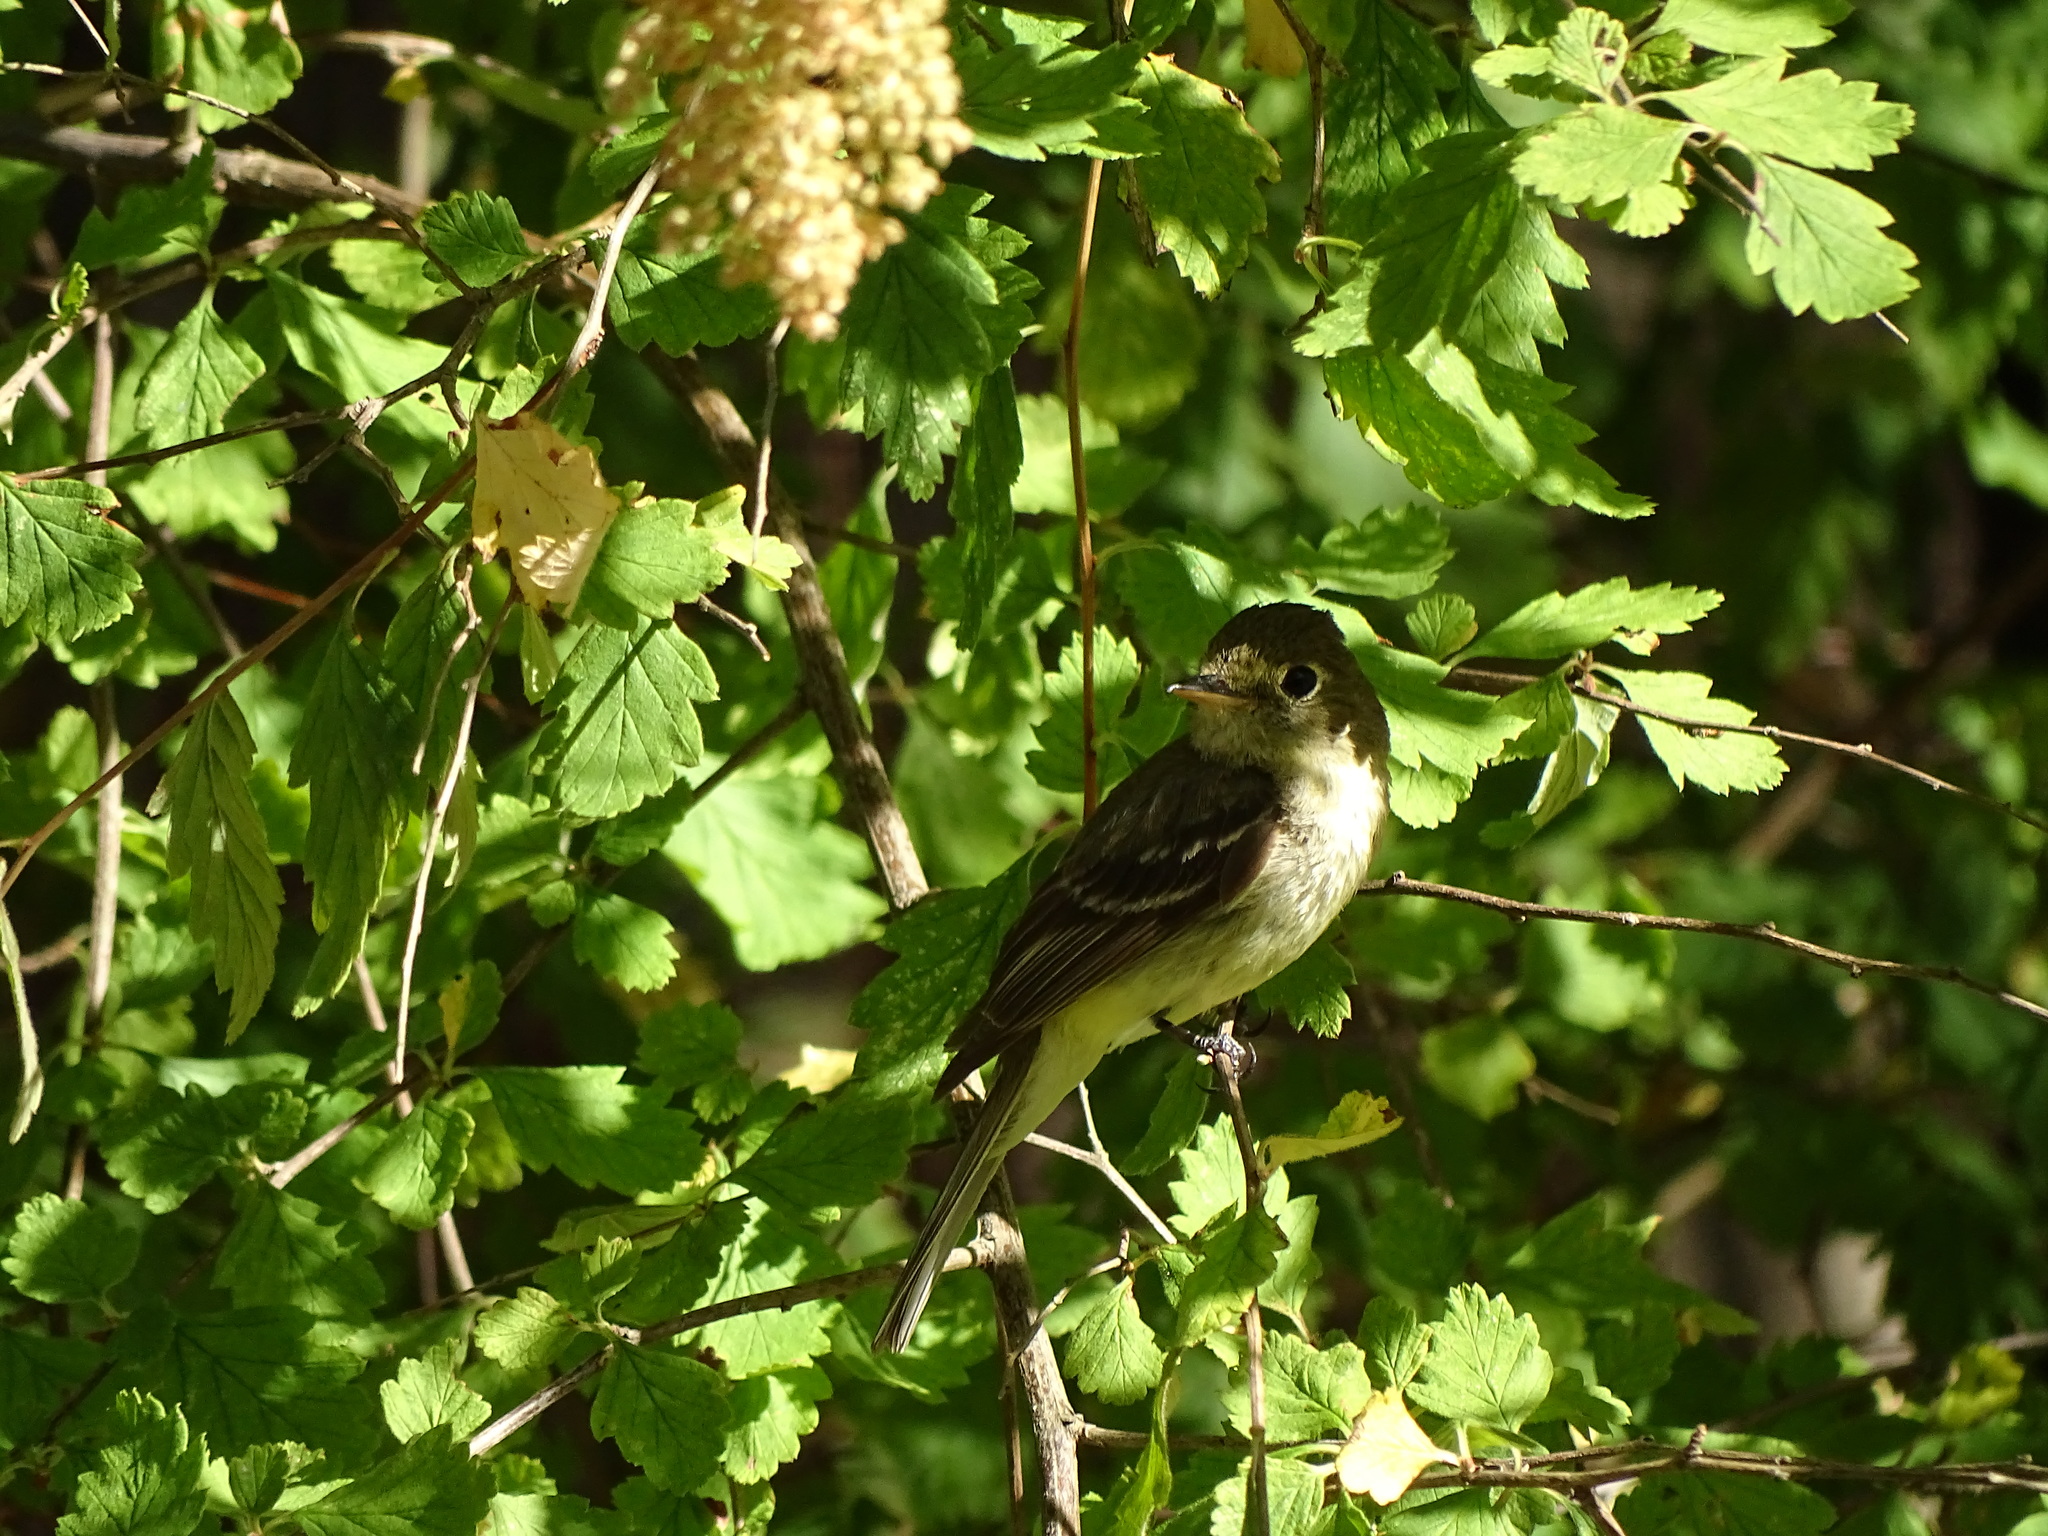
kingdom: Animalia
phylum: Chordata
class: Aves
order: Passeriformes
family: Tyrannidae
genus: Empidonax
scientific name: Empidonax difficilis
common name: Pacific-slope flycatcher
